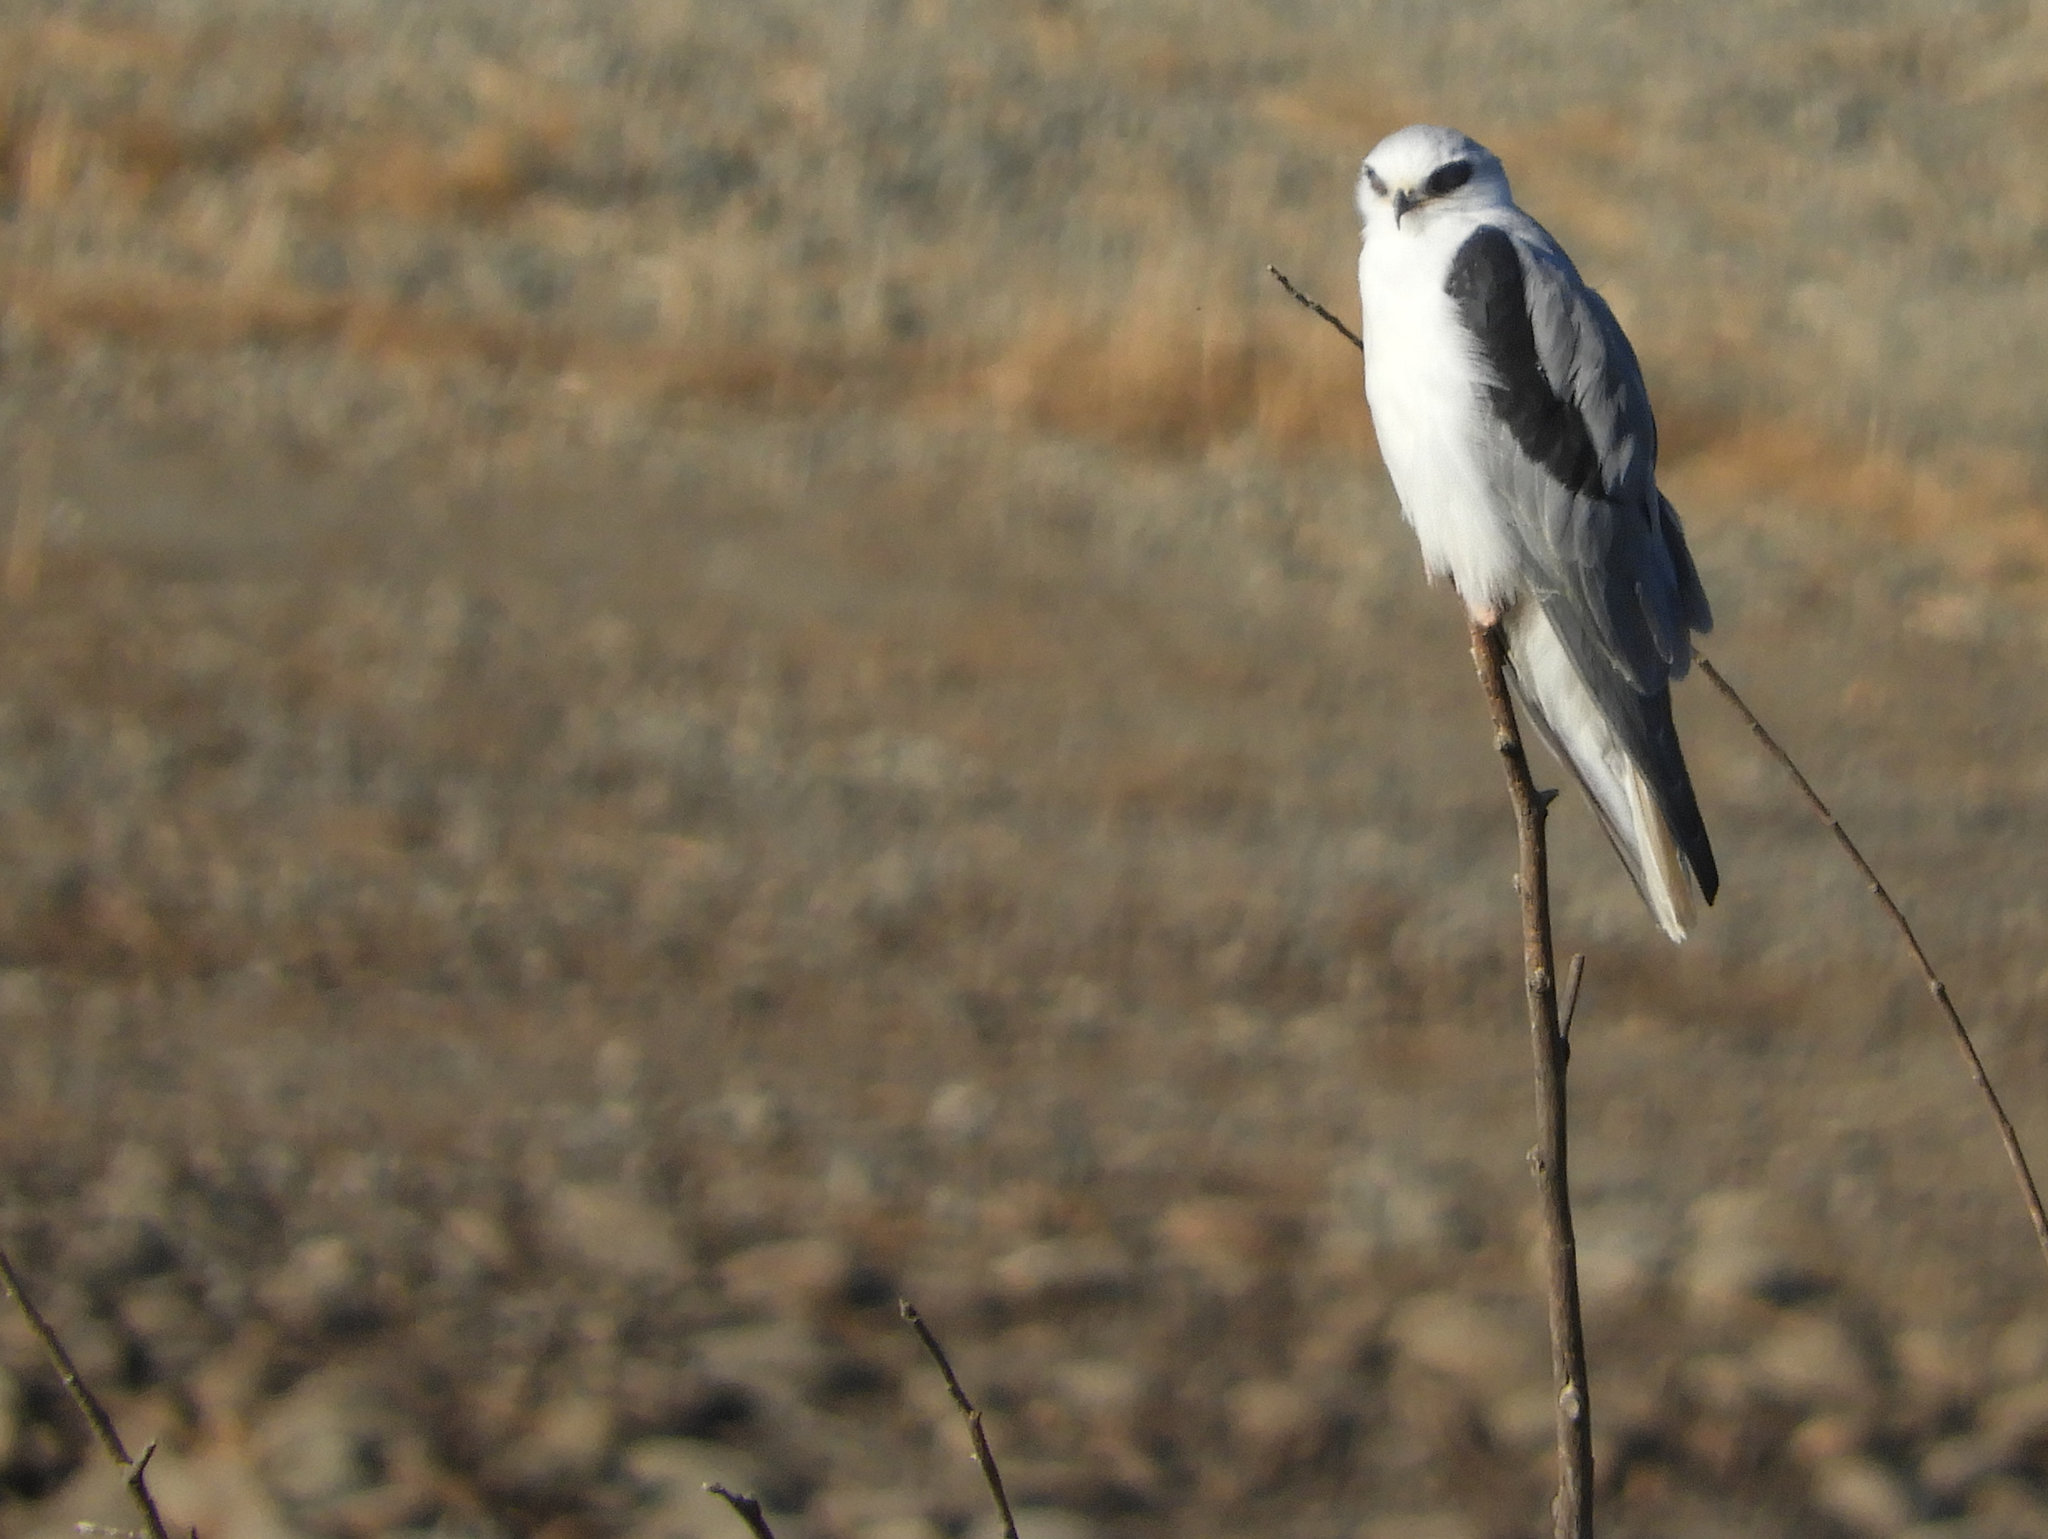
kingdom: Animalia
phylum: Chordata
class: Aves
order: Accipitriformes
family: Accipitridae
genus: Elanus
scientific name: Elanus leucurus
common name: White-tailed kite
